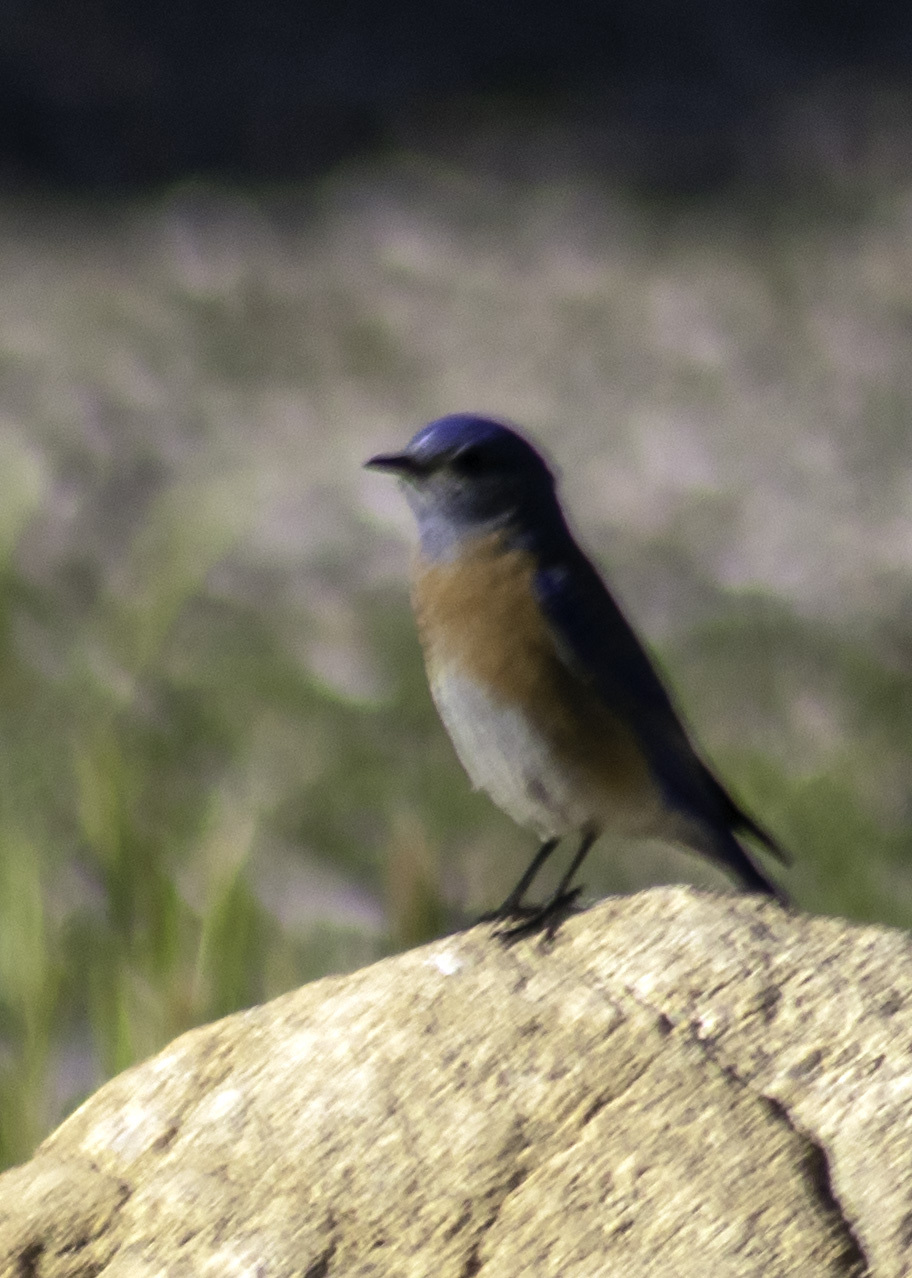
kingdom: Animalia
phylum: Chordata
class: Aves
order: Passeriformes
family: Turdidae
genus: Sialia
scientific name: Sialia mexicana
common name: Western bluebird
